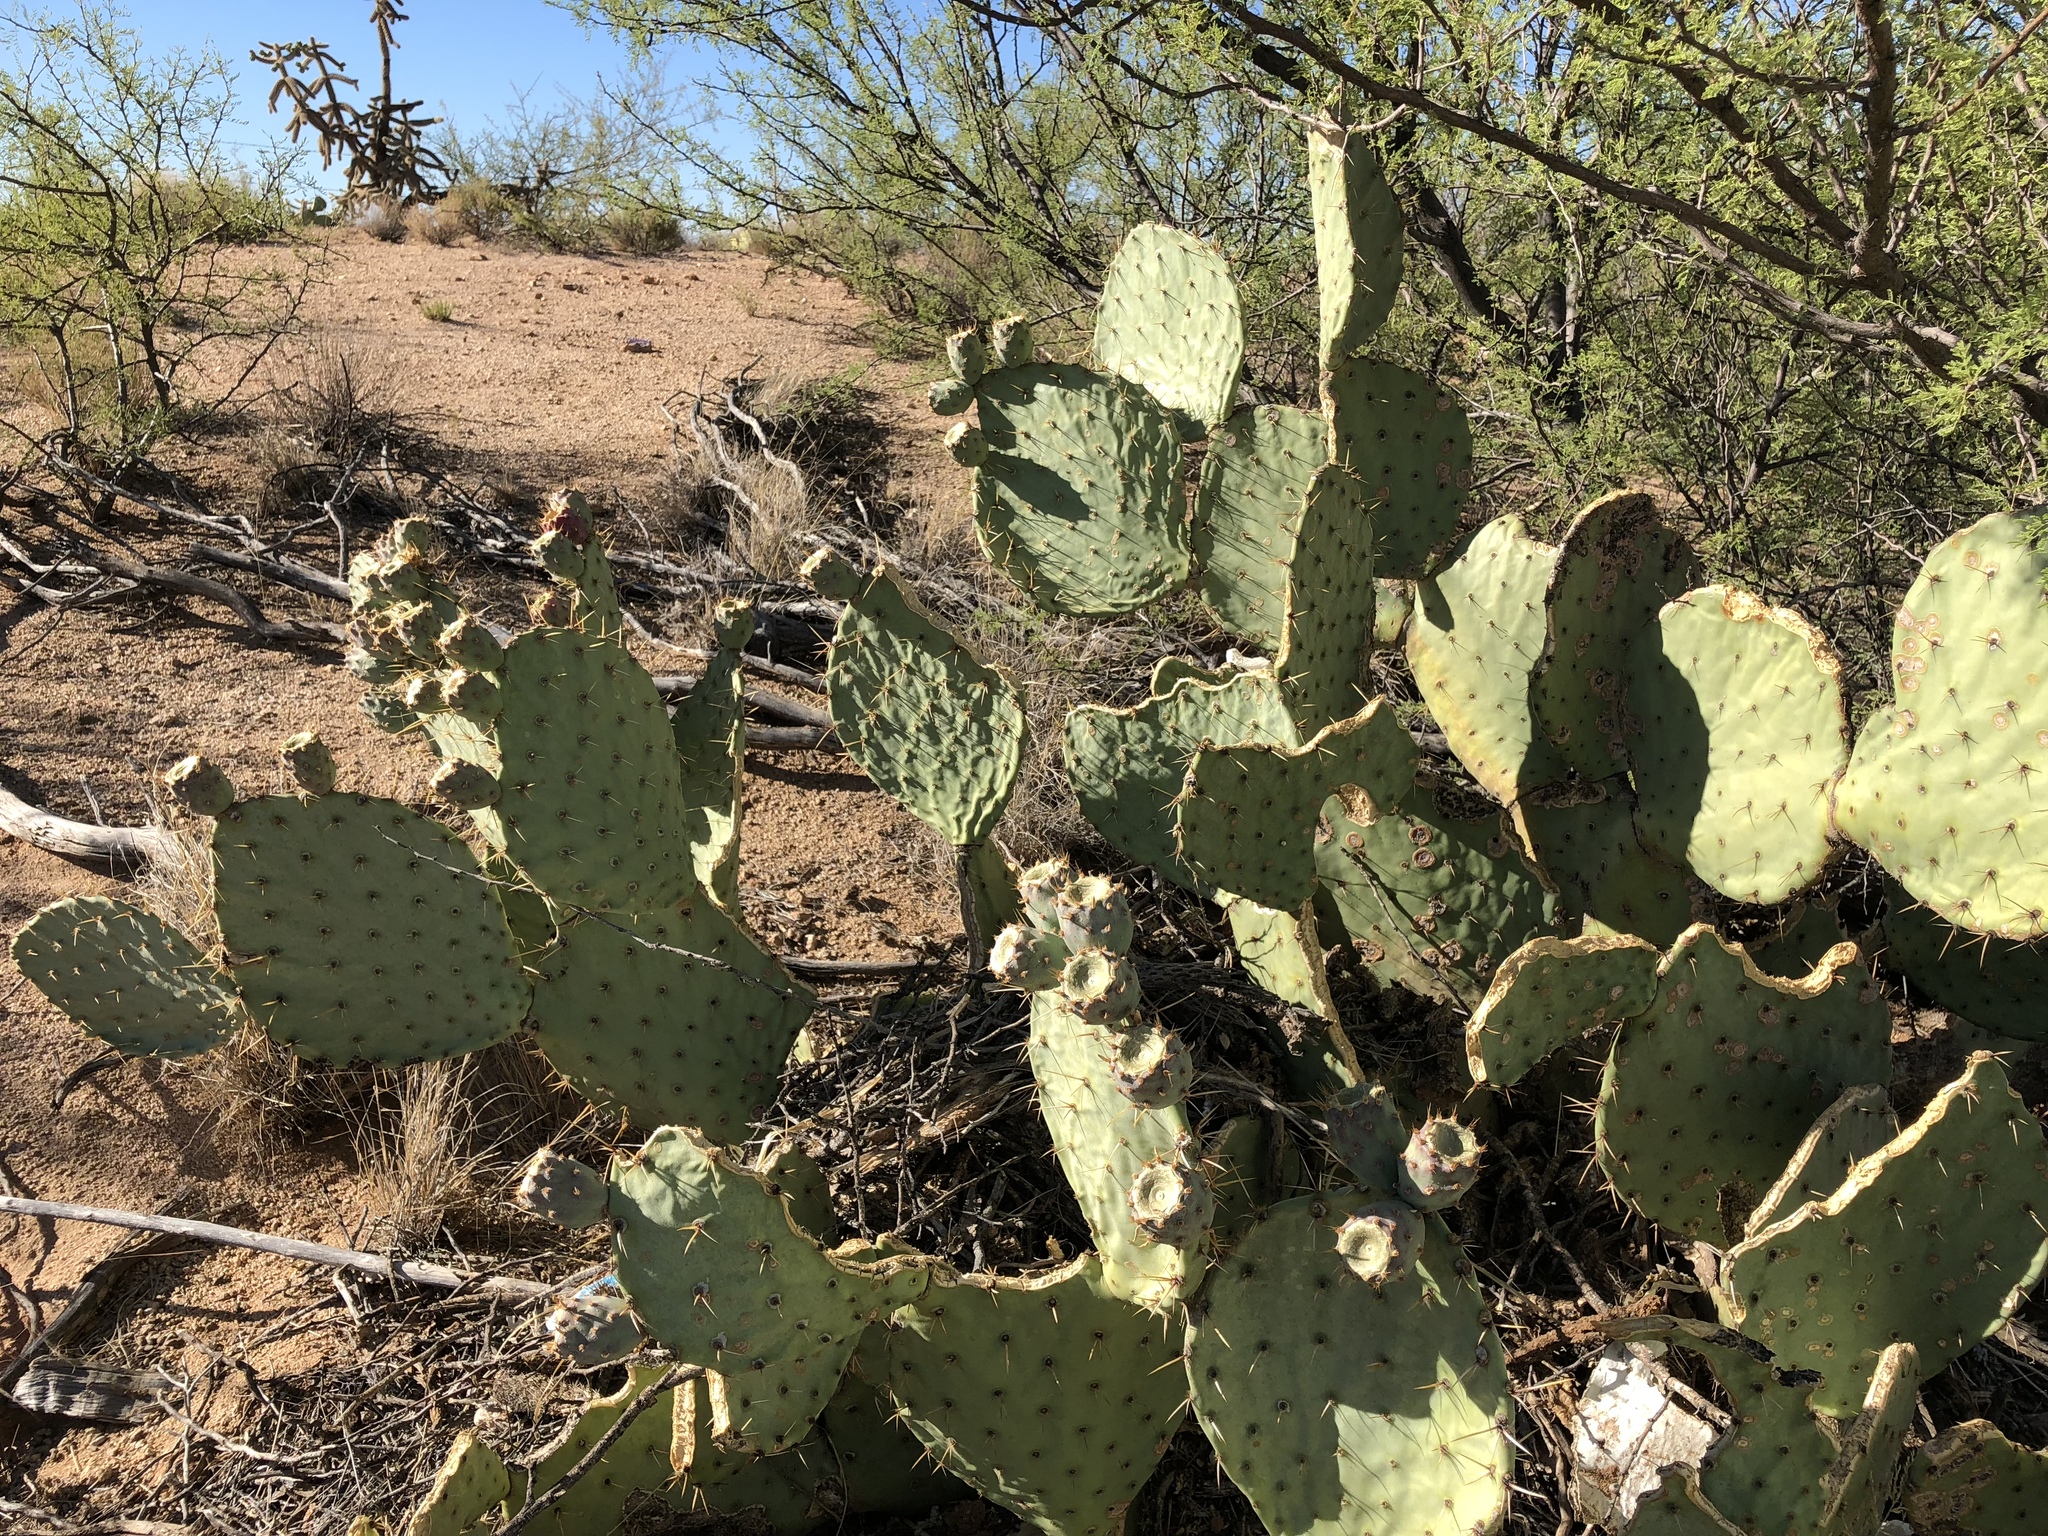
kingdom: Plantae
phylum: Tracheophyta
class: Magnoliopsida
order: Caryophyllales
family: Cactaceae
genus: Opuntia
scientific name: Opuntia engelmannii
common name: Cactus-apple
